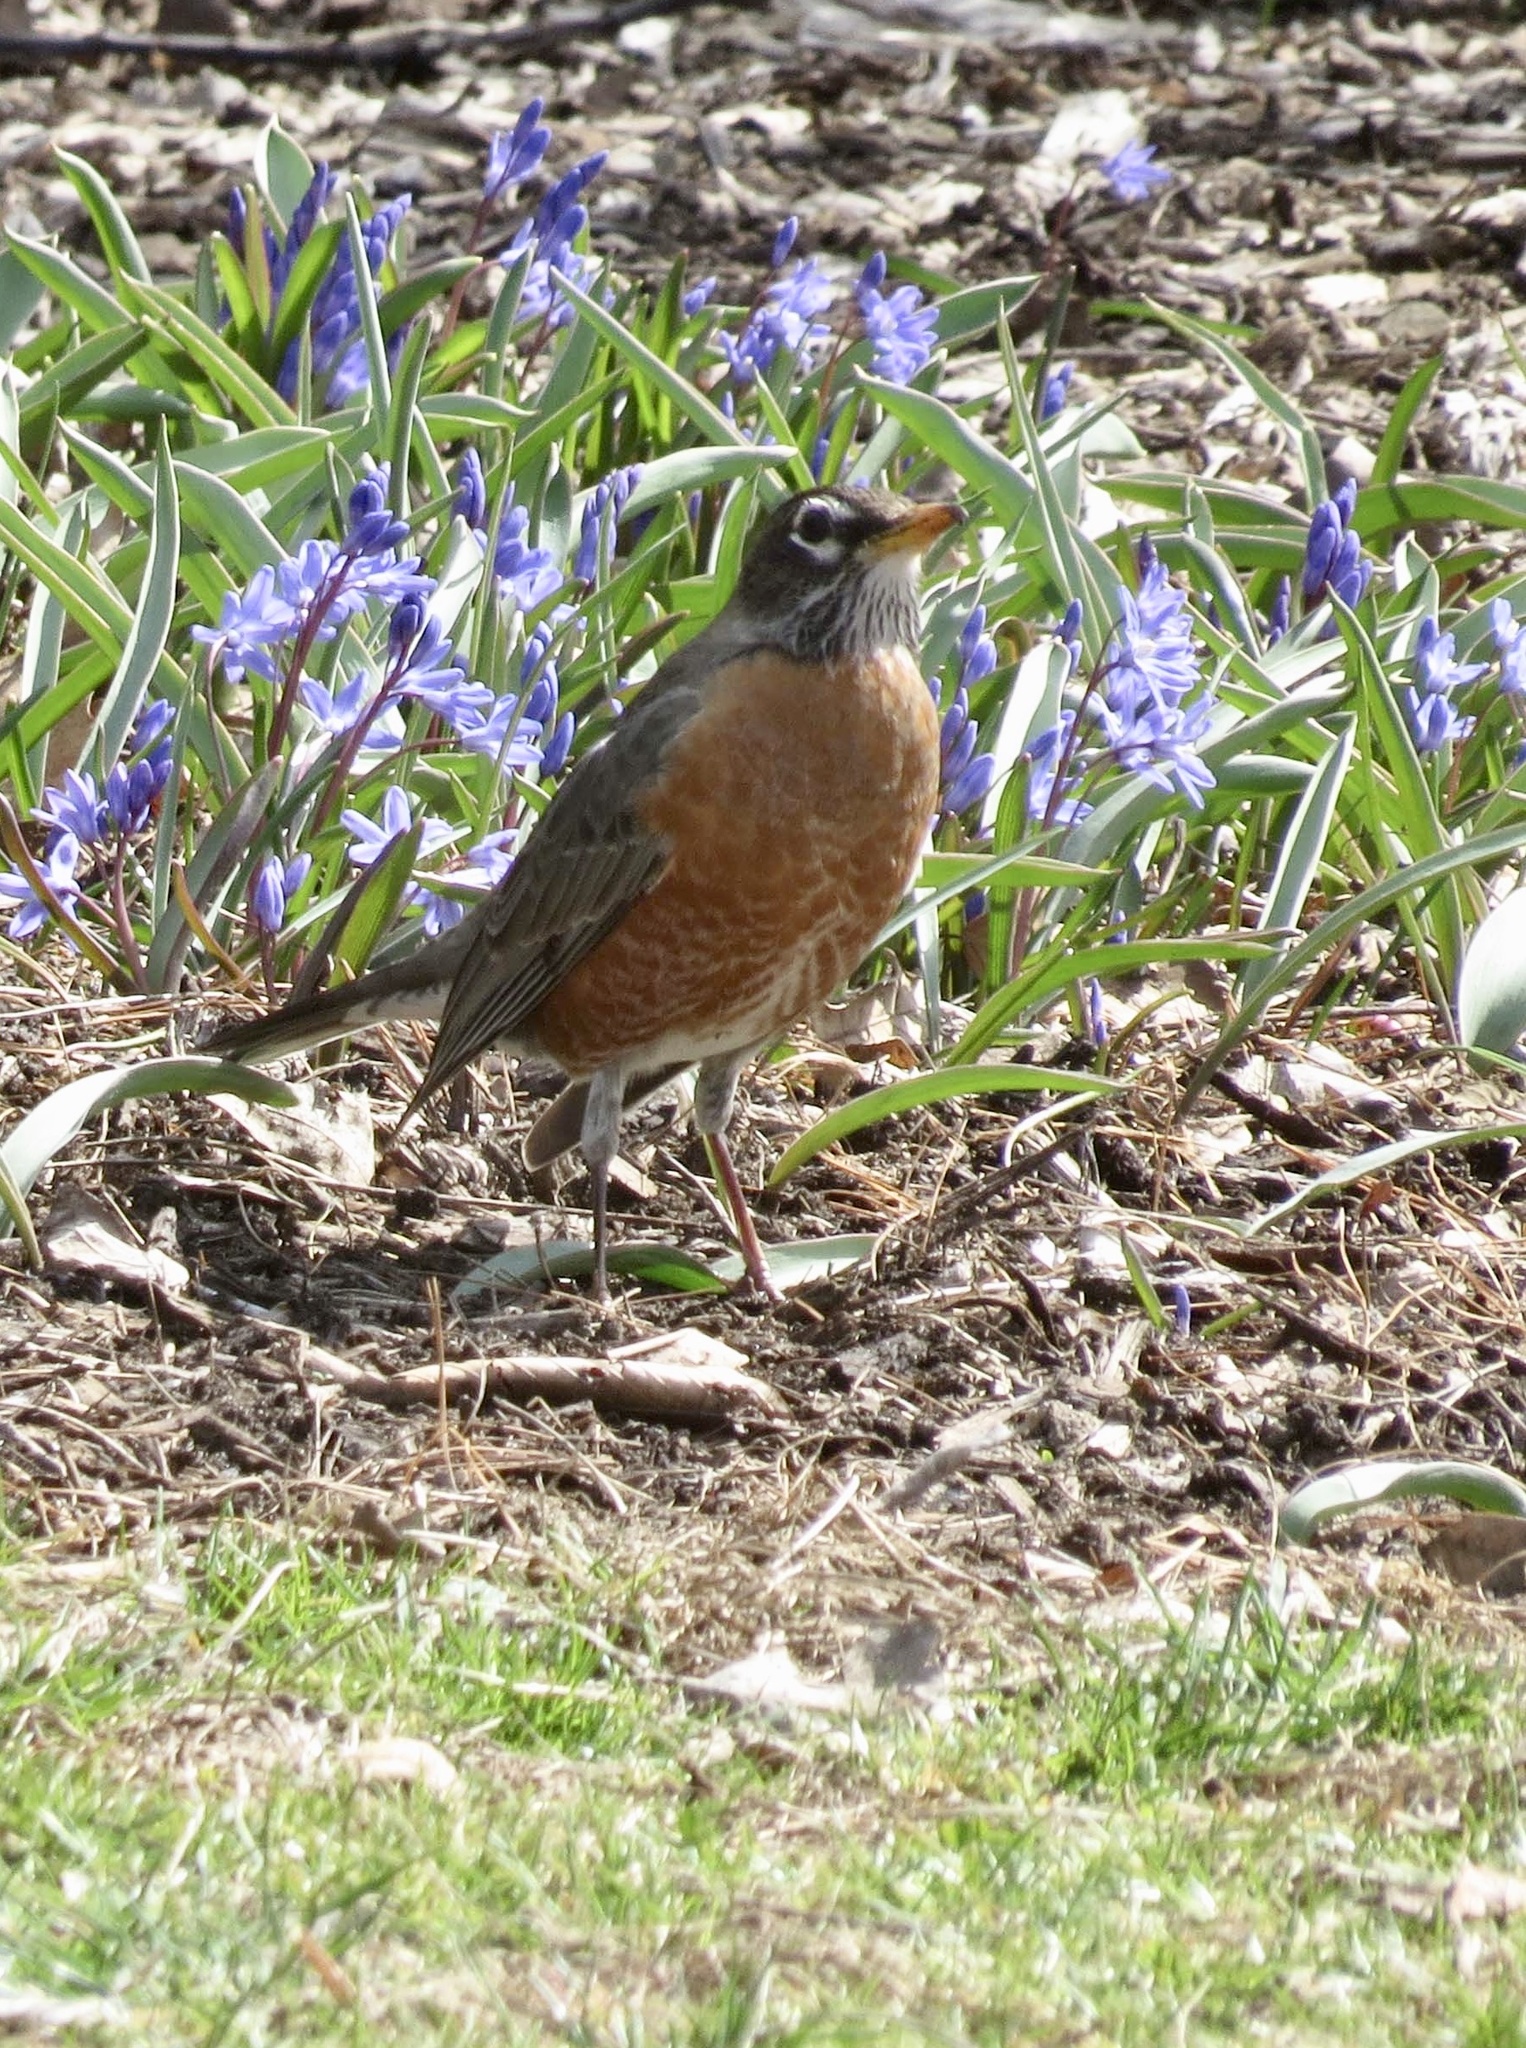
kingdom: Animalia
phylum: Chordata
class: Aves
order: Passeriformes
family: Turdidae
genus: Turdus
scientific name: Turdus migratorius
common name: American robin
